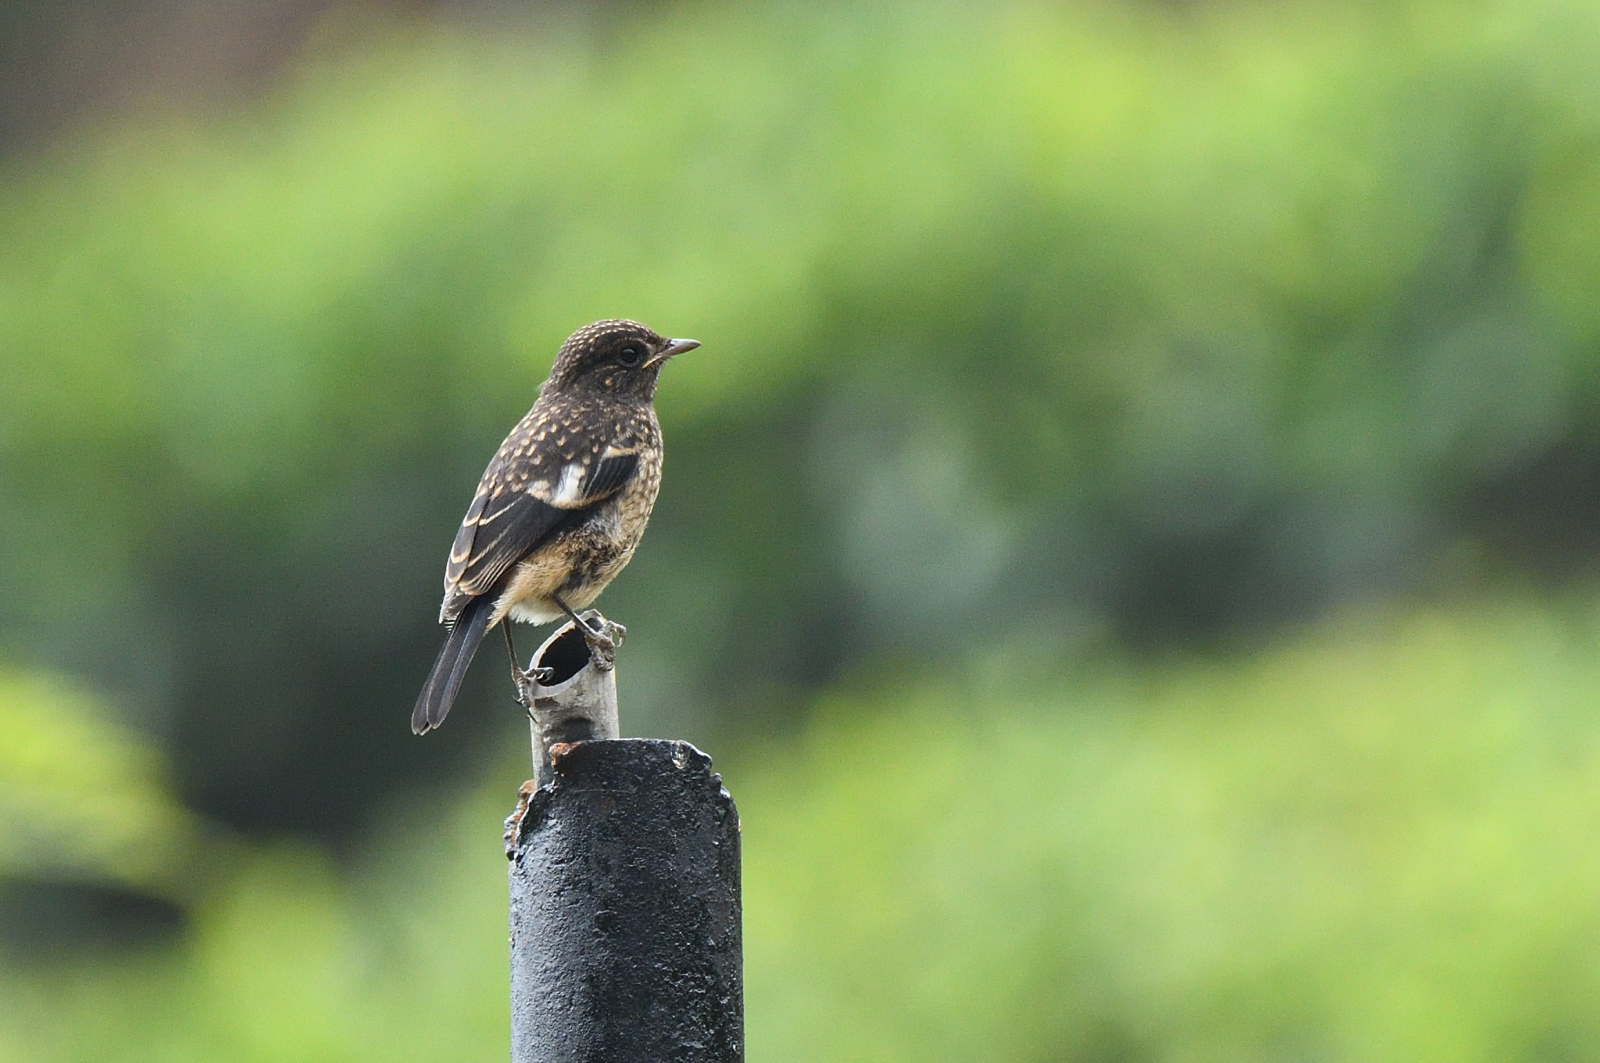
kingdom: Animalia
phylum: Chordata
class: Aves
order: Passeriformes
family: Muscicapidae
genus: Saxicola
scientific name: Saxicola caprata
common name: Pied bush chat
